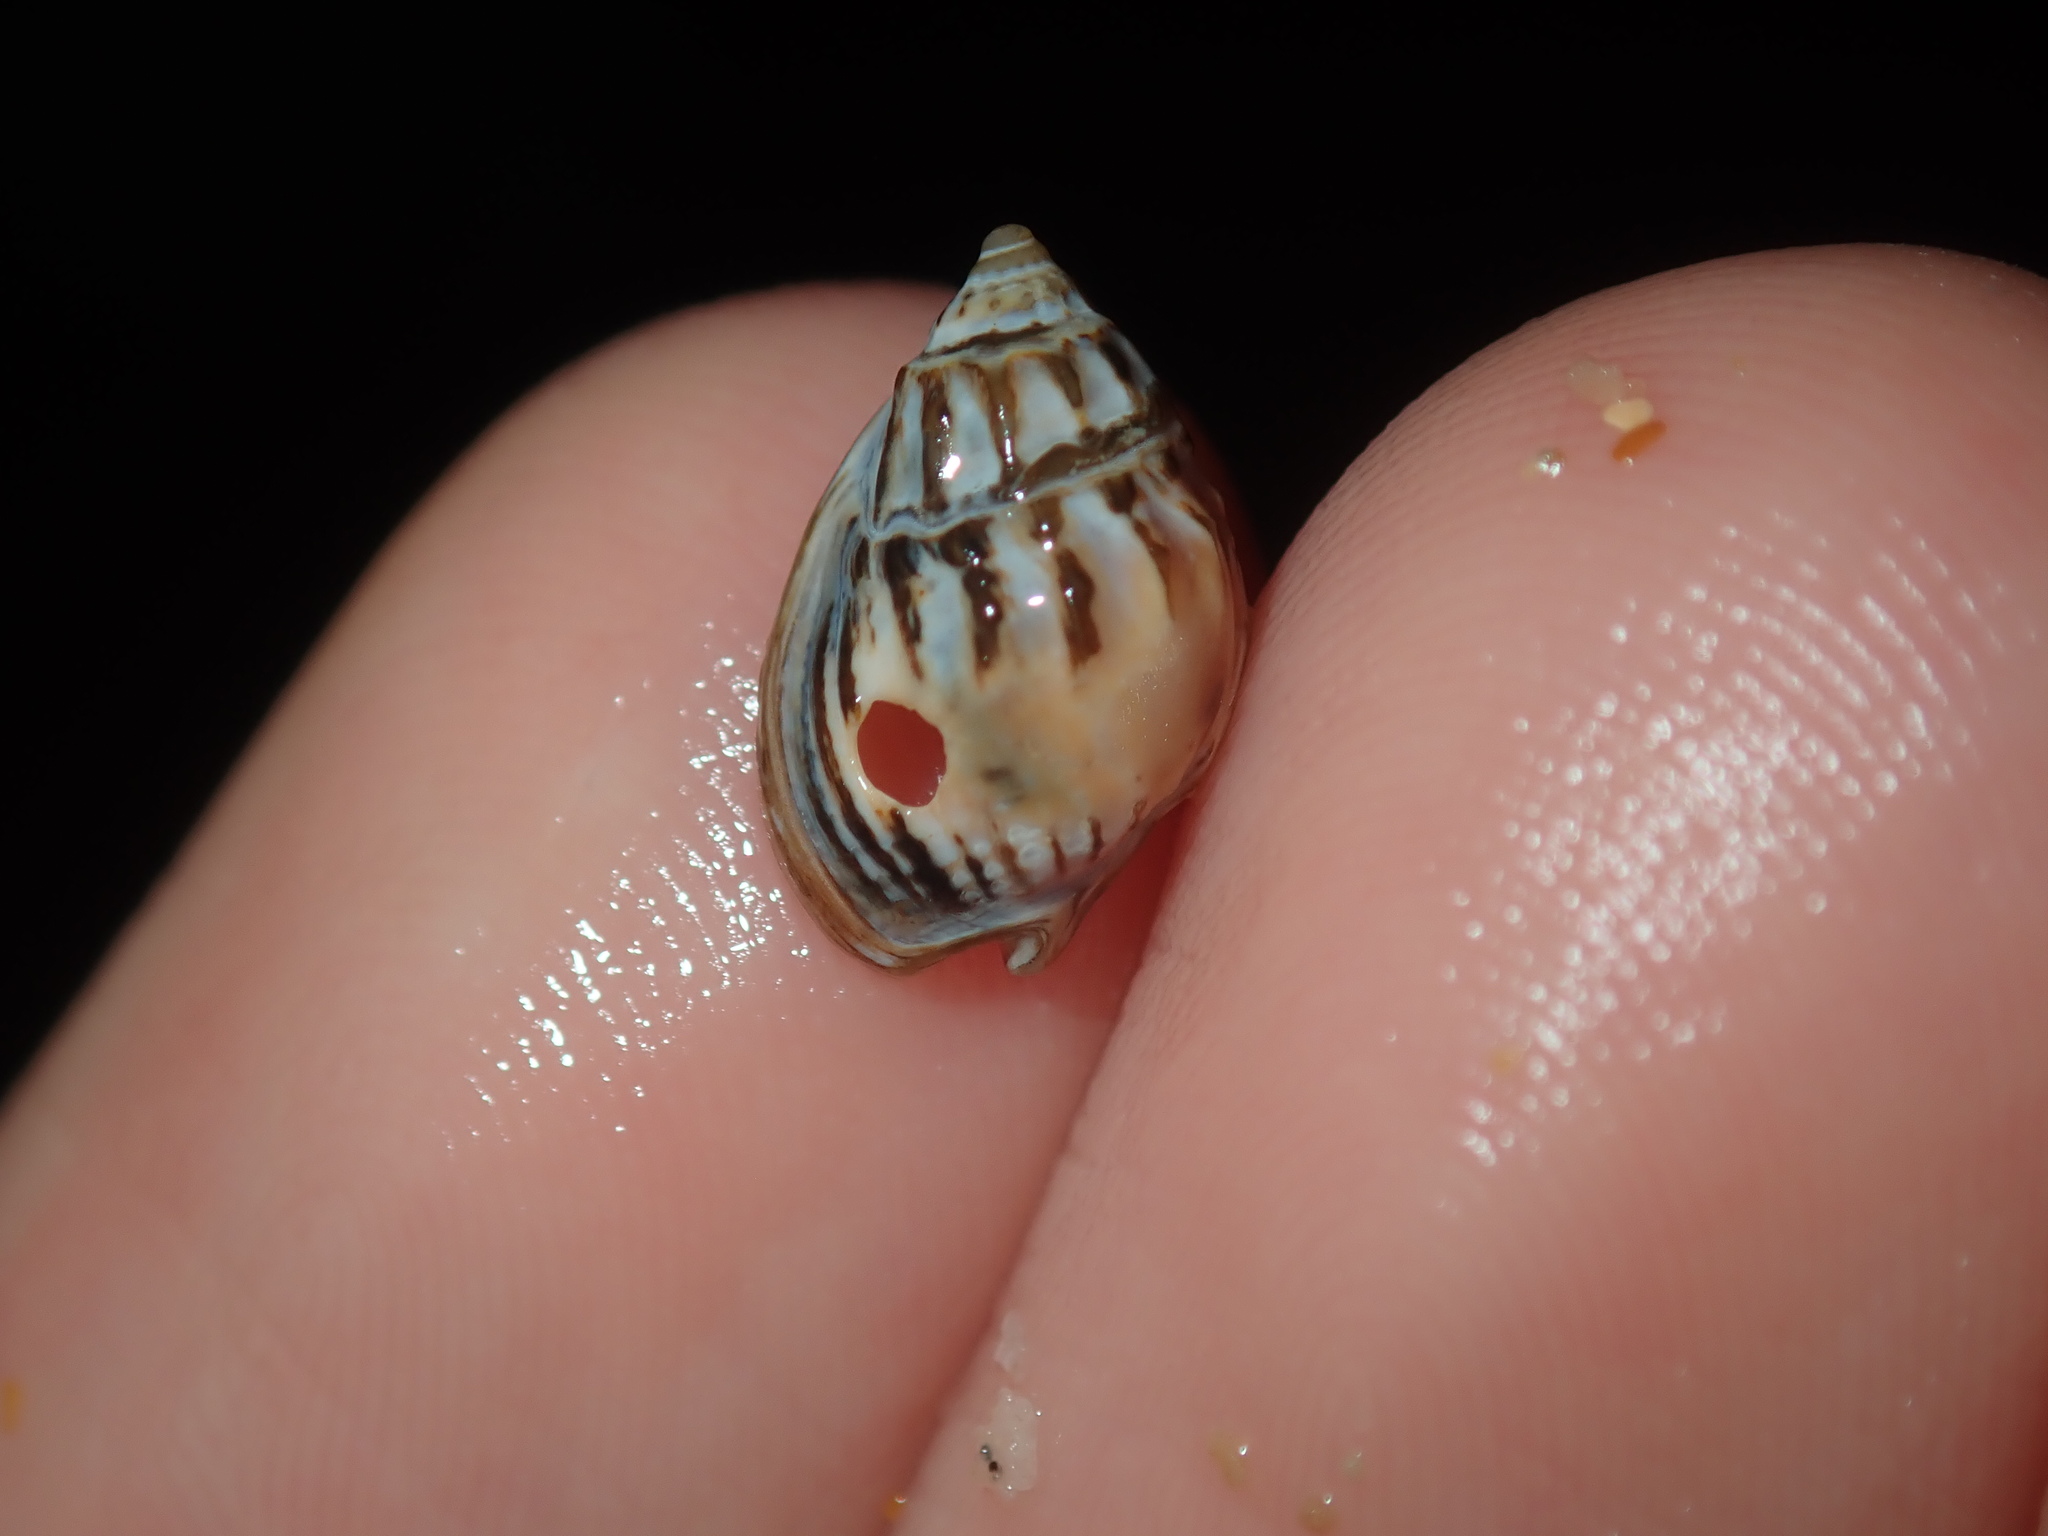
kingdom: Animalia
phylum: Mollusca
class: Gastropoda
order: Neogastropoda
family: Nassariidae
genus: Nassarius
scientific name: Nassarius jonasii
